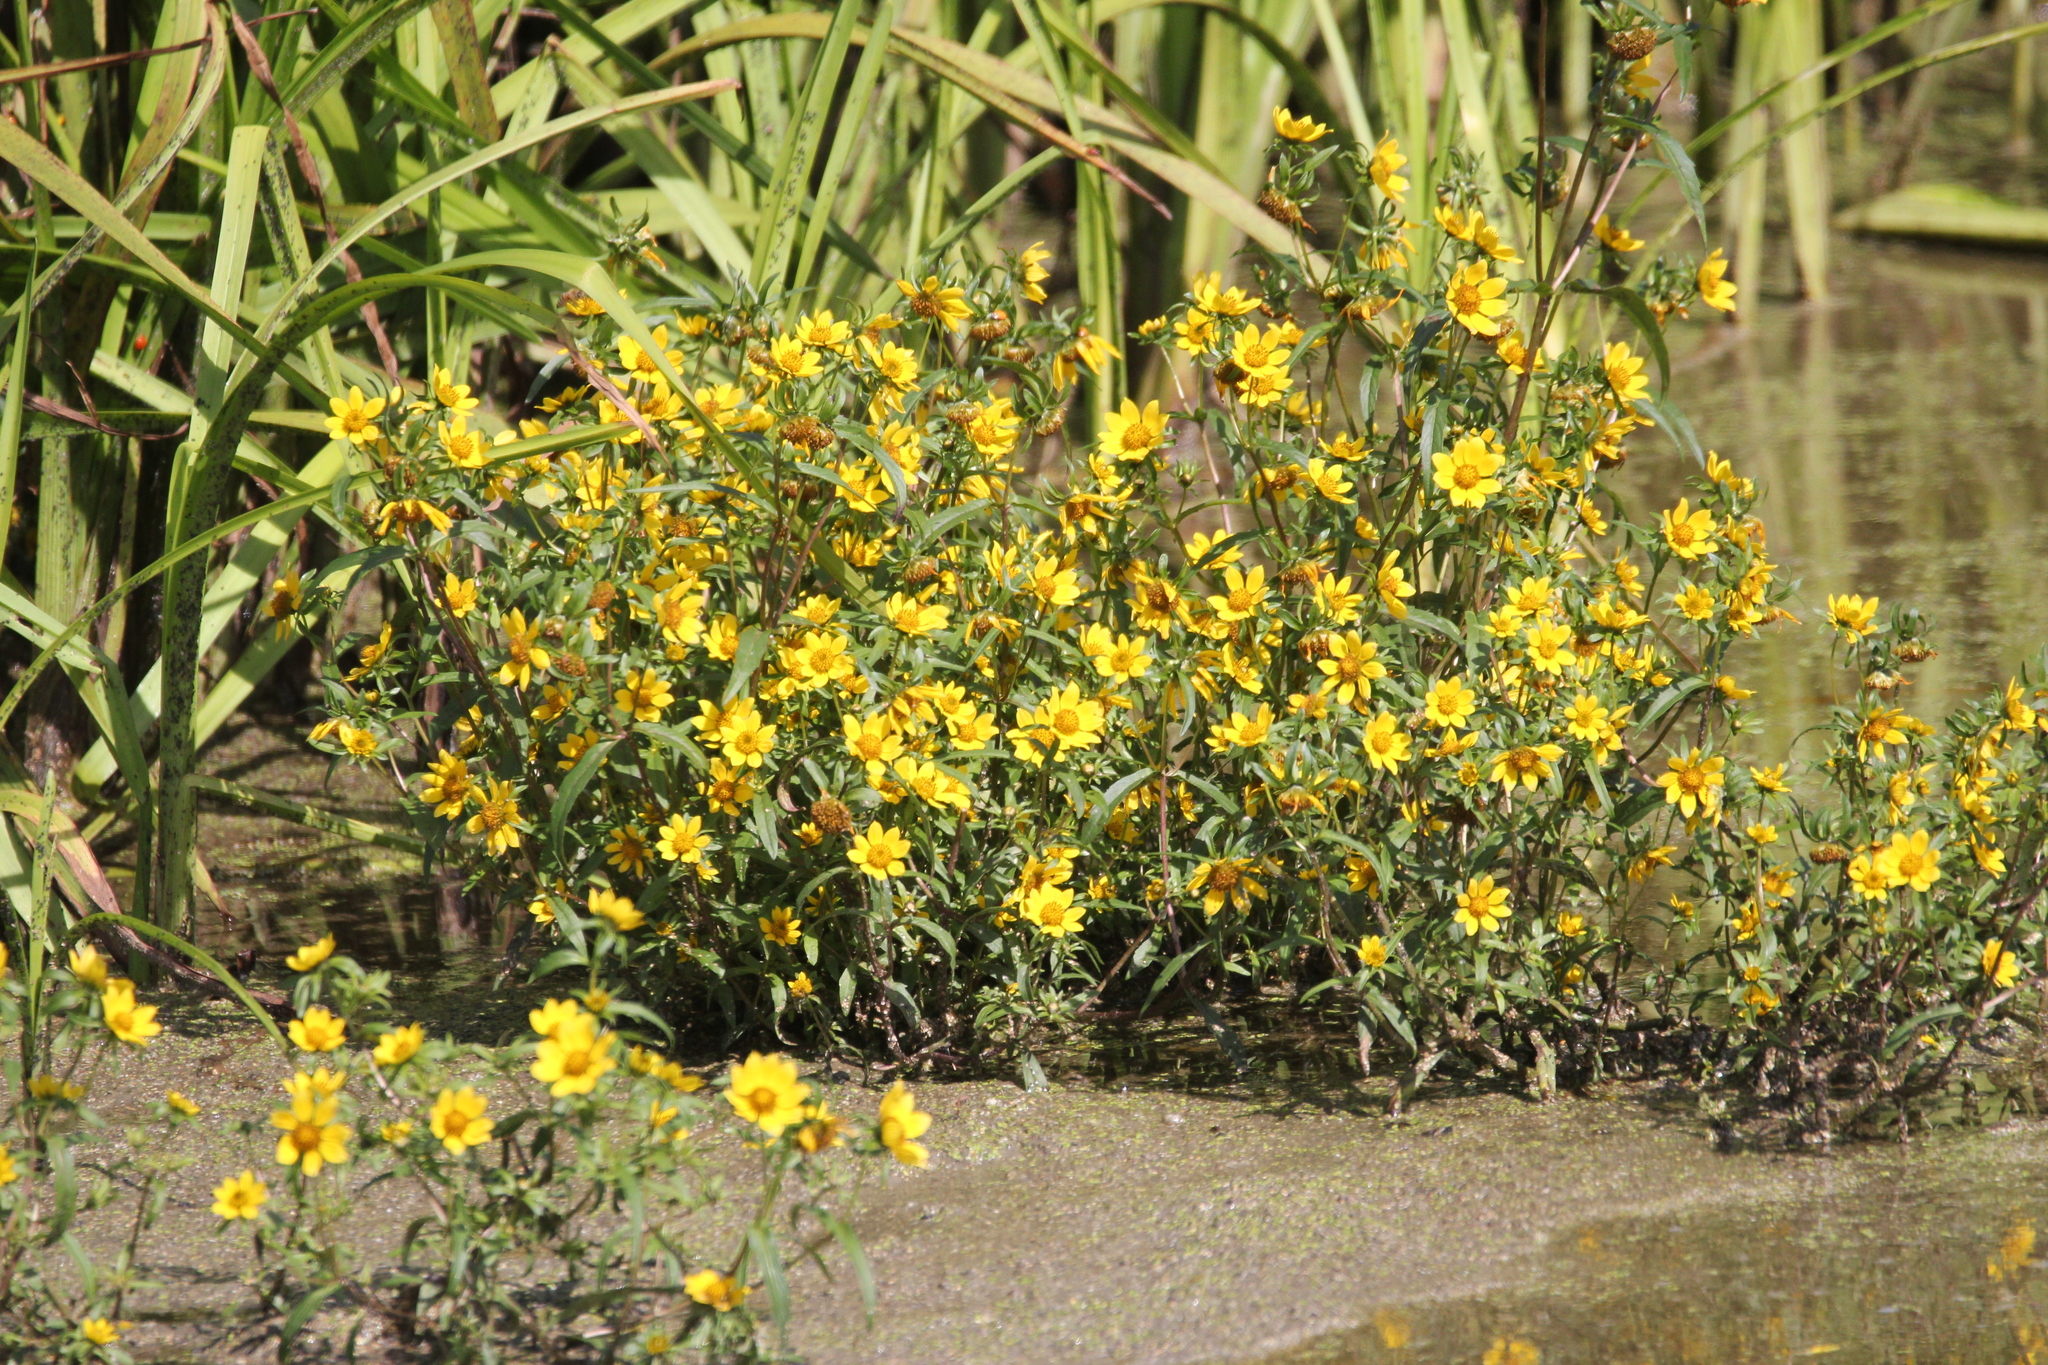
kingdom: Plantae
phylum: Tracheophyta
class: Magnoliopsida
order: Asterales
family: Asteraceae
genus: Bidens
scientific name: Bidens cernua
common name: Nodding bur-marigold
